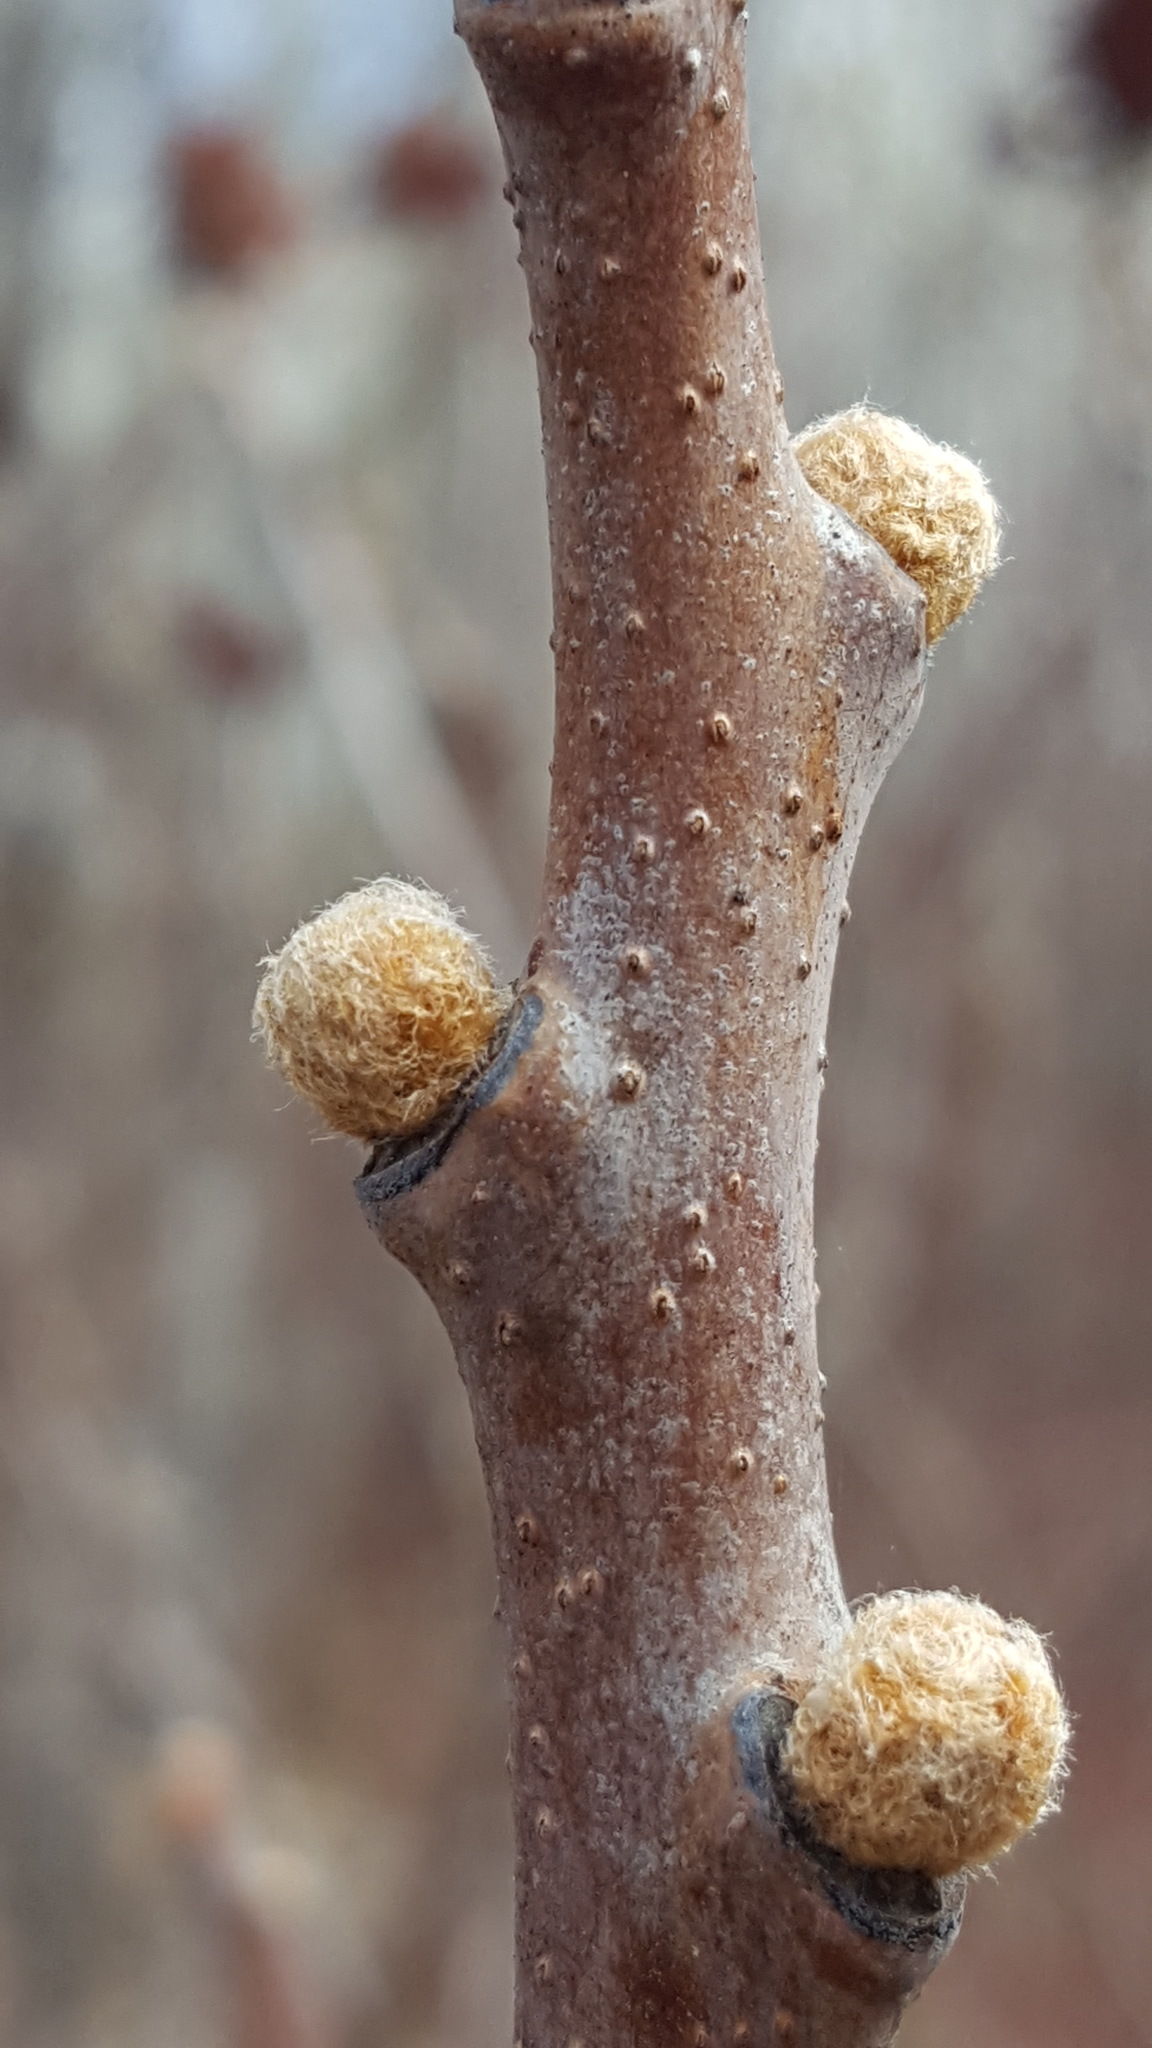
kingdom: Plantae
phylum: Tracheophyta
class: Magnoliopsida
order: Sapindales
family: Anacardiaceae
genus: Rhus
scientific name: Rhus glabra
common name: Scarlet sumac
